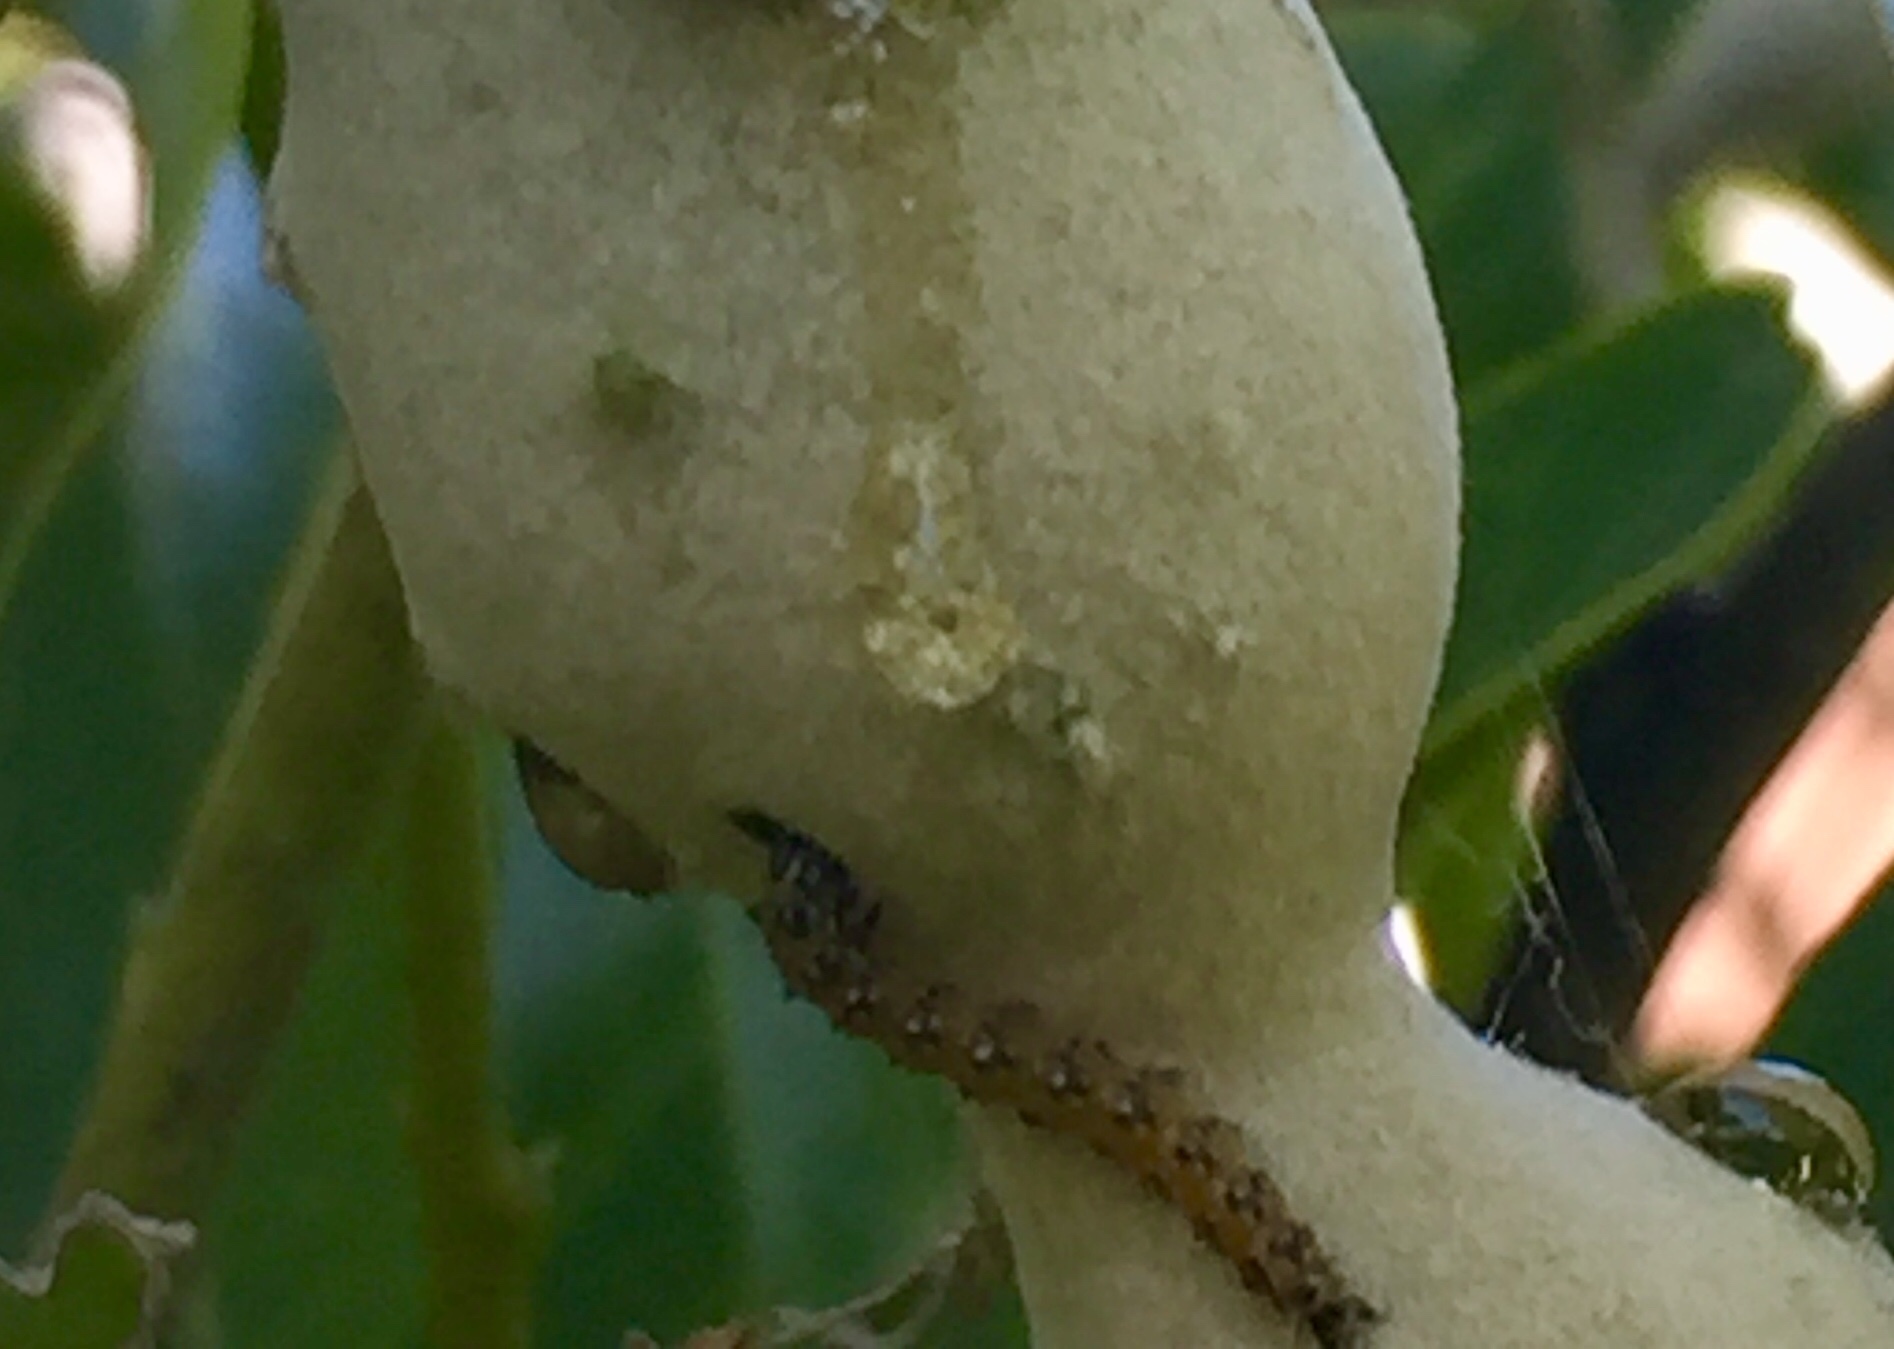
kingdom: Animalia
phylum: Arthropoda
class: Insecta
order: Lepidoptera
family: Crambidae
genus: Uresiphita
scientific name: Uresiphita reversalis
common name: Genista broom moth
